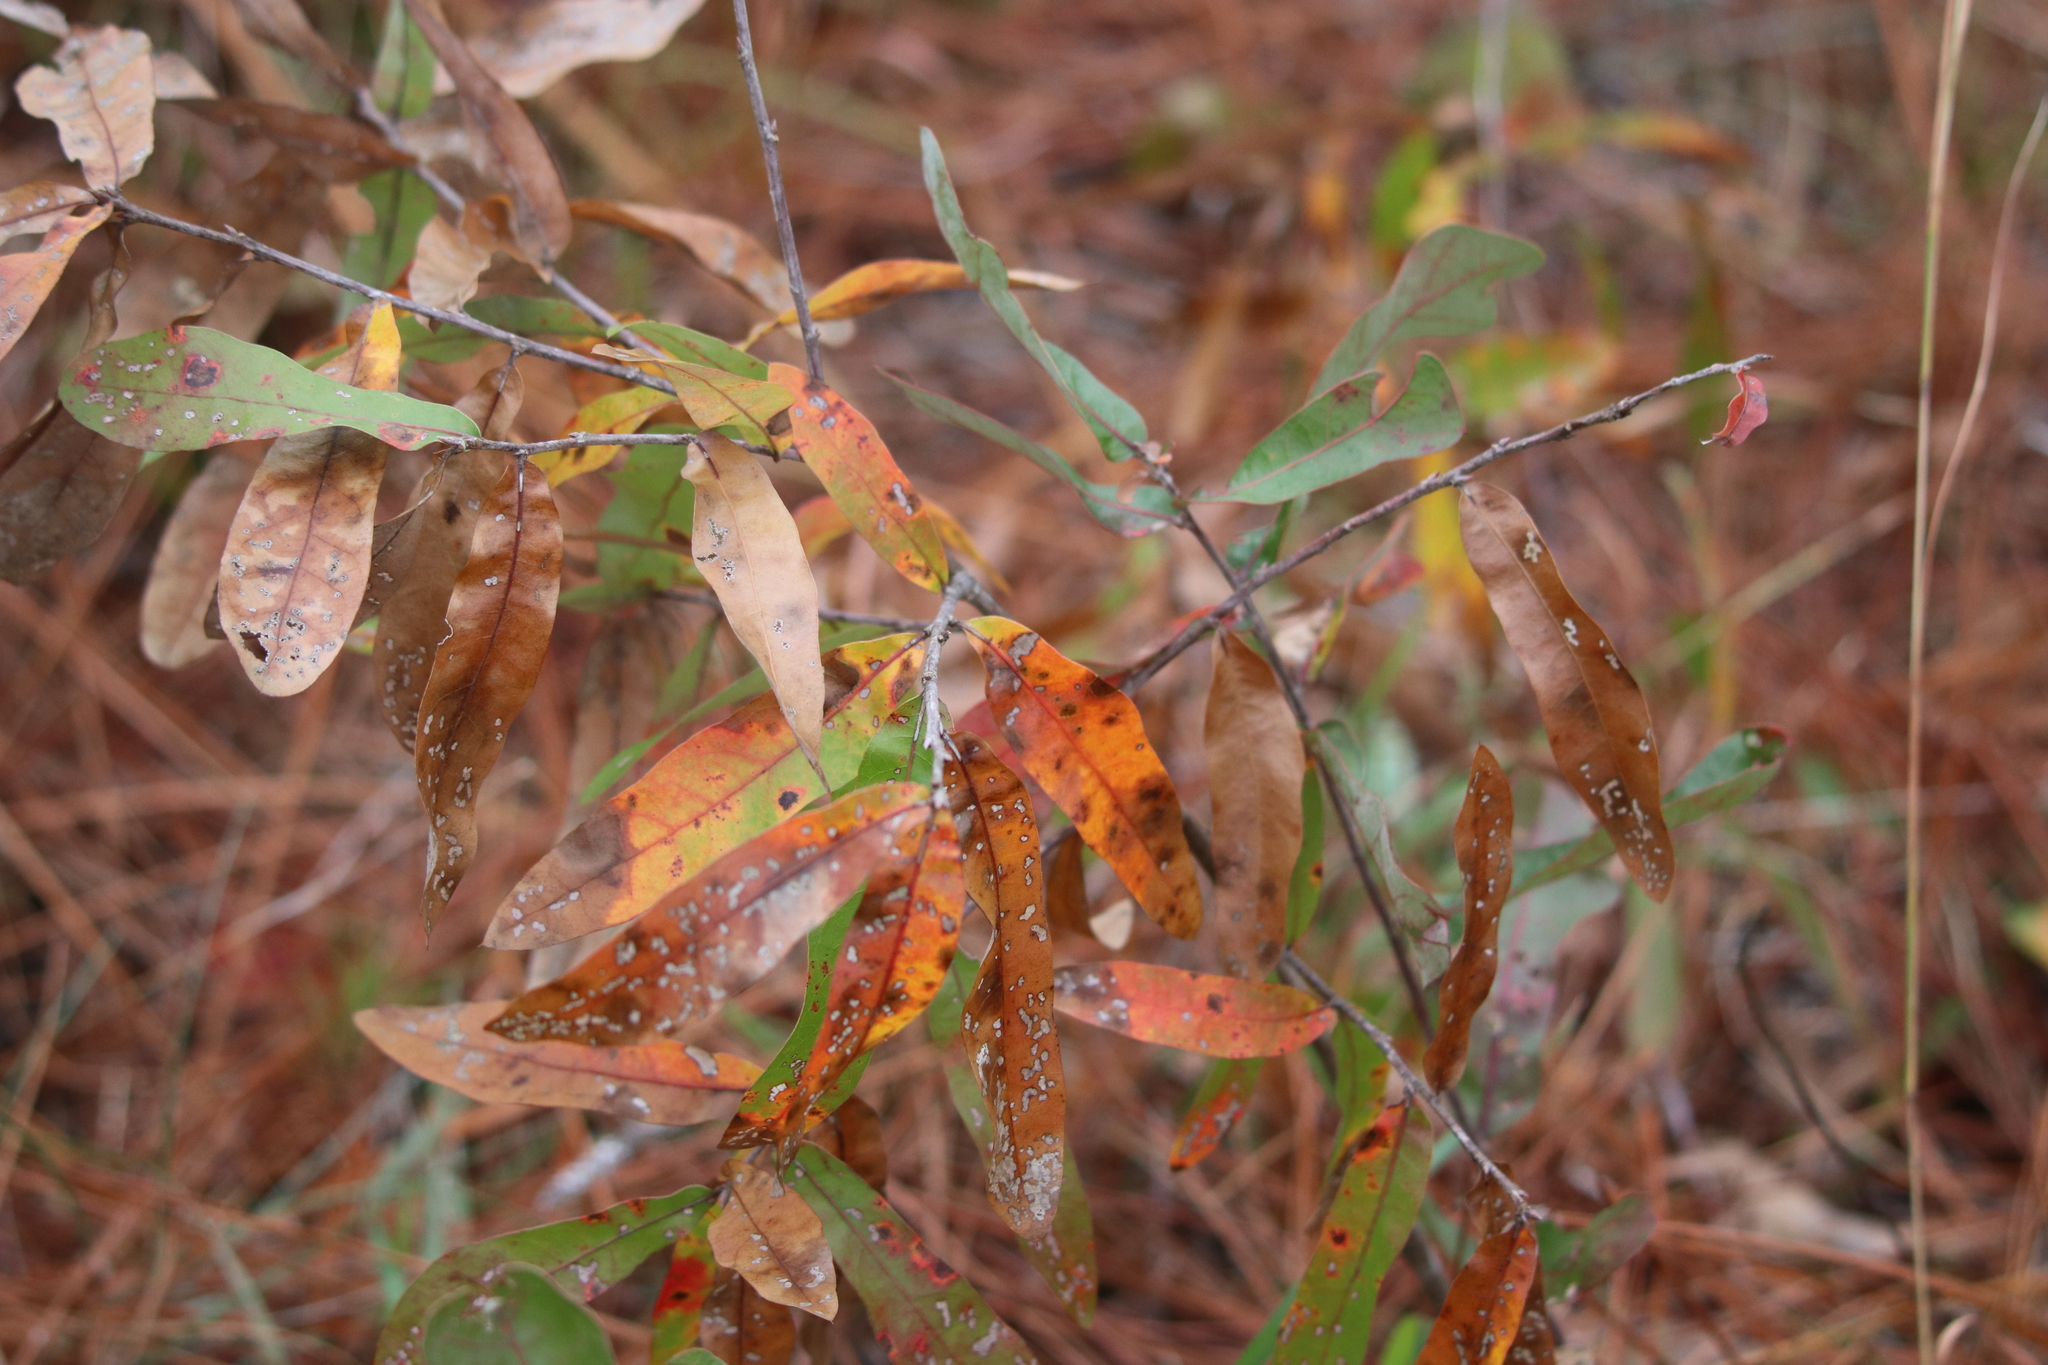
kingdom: Plantae
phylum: Tracheophyta
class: Magnoliopsida
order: Fagales
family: Fagaceae
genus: Quercus
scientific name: Quercus incana
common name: Bluejack oak
